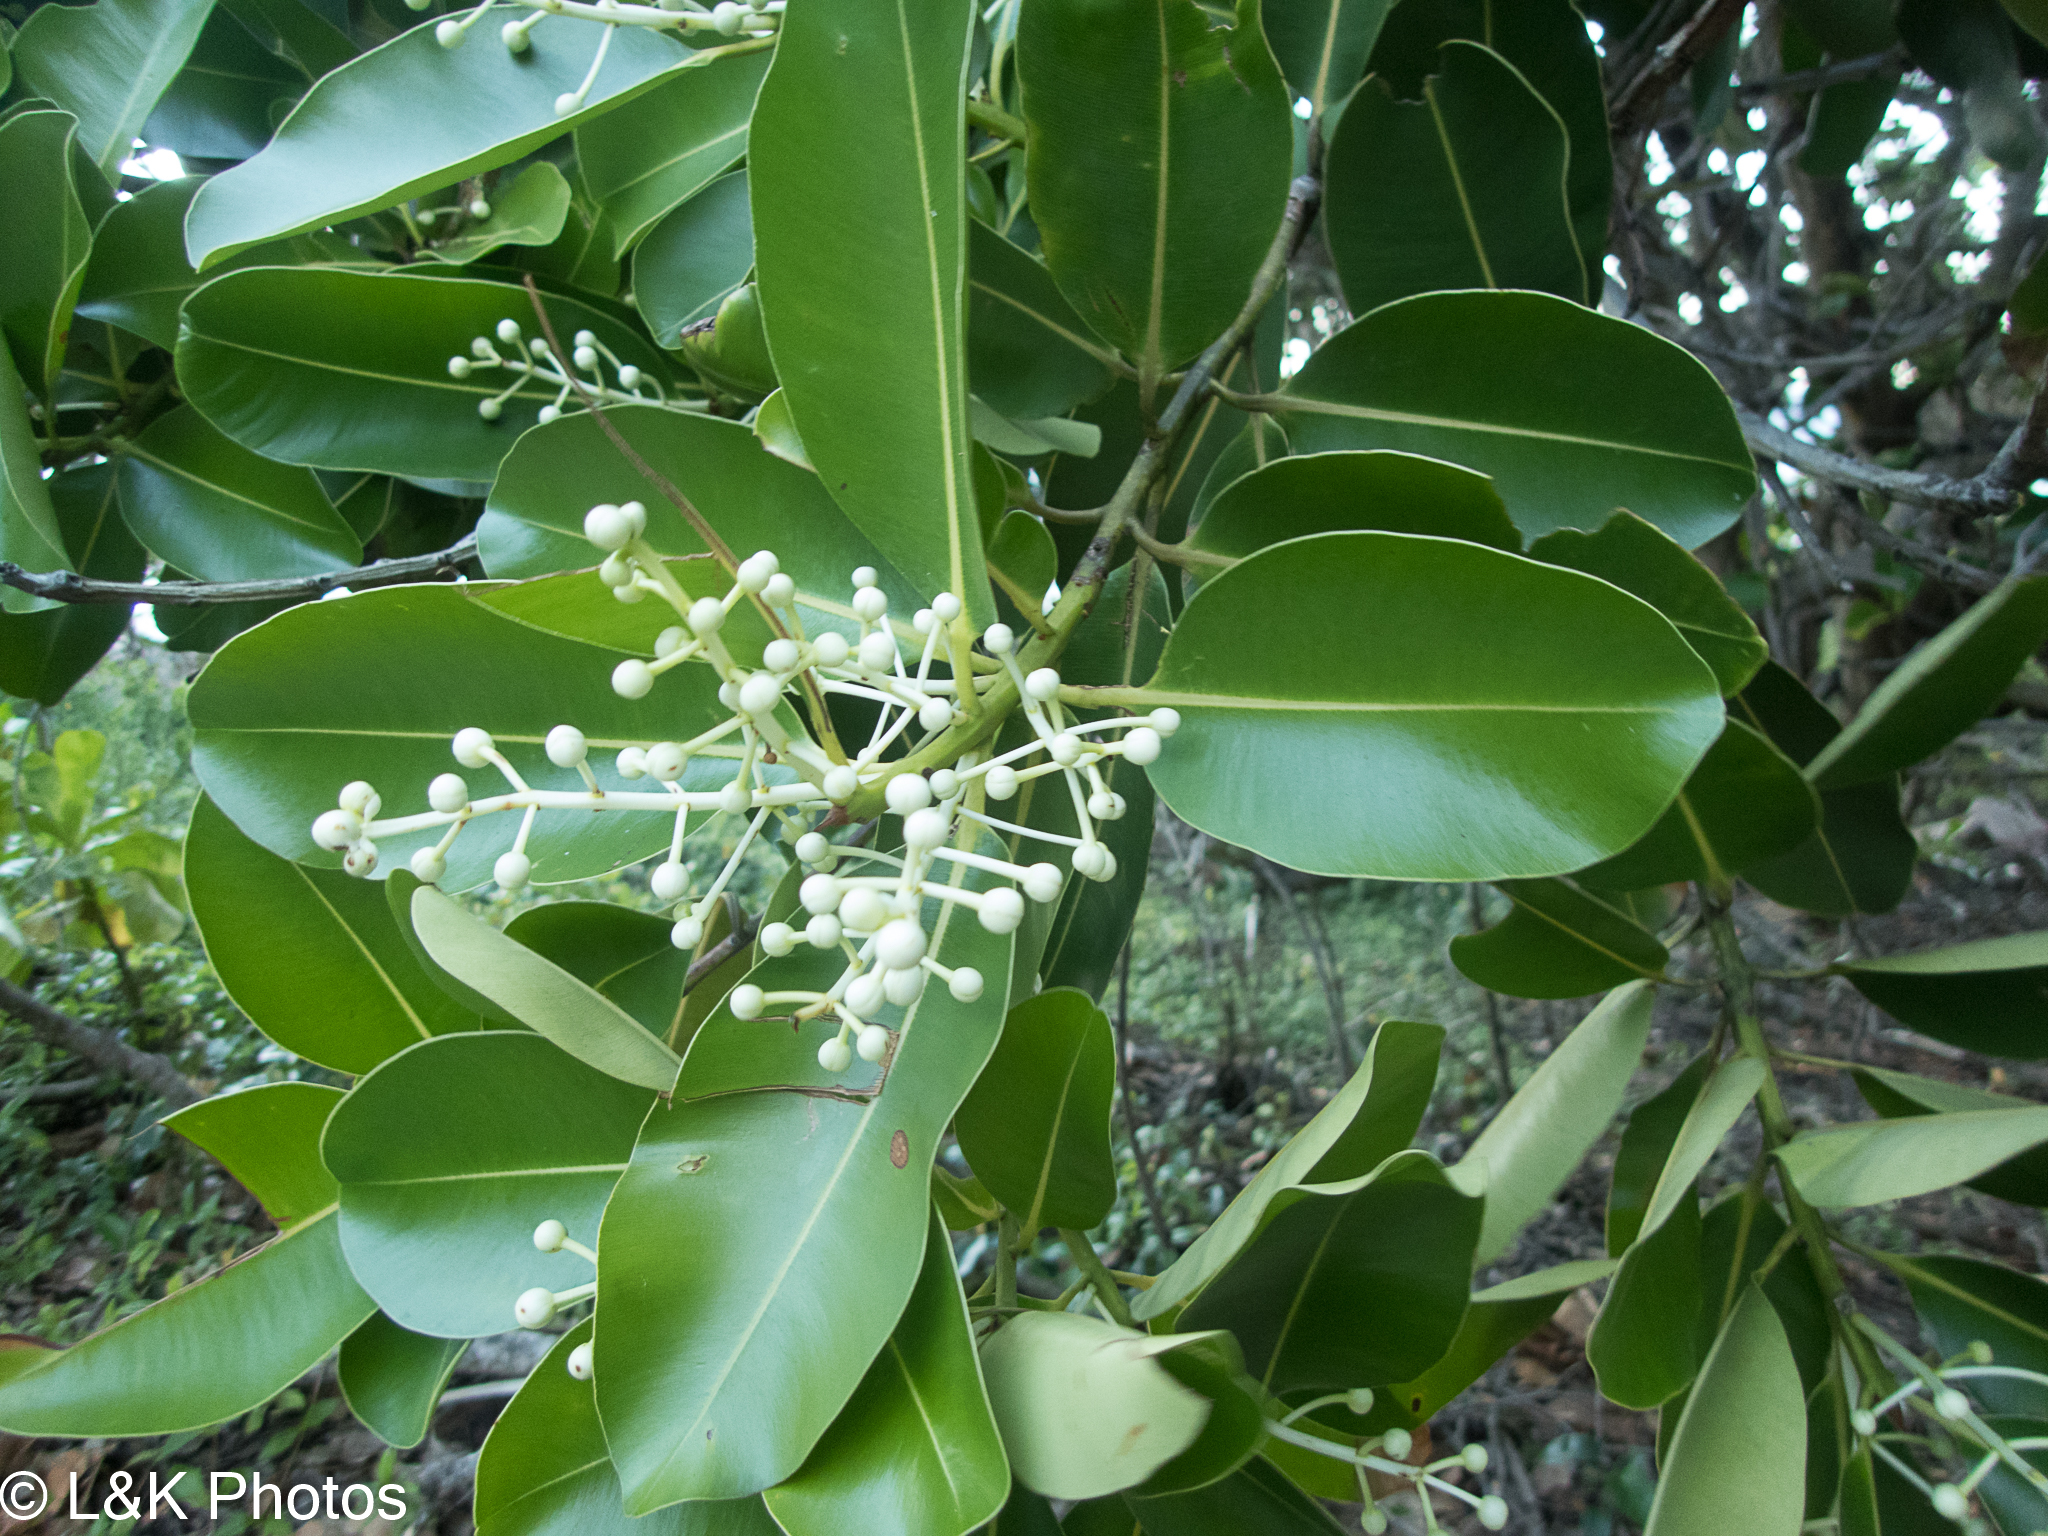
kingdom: Plantae
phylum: Tracheophyta
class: Magnoliopsida
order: Malpighiales
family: Calophyllaceae
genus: Calophyllum
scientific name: Calophyllum inophyllum
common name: Alexandrian laurel
